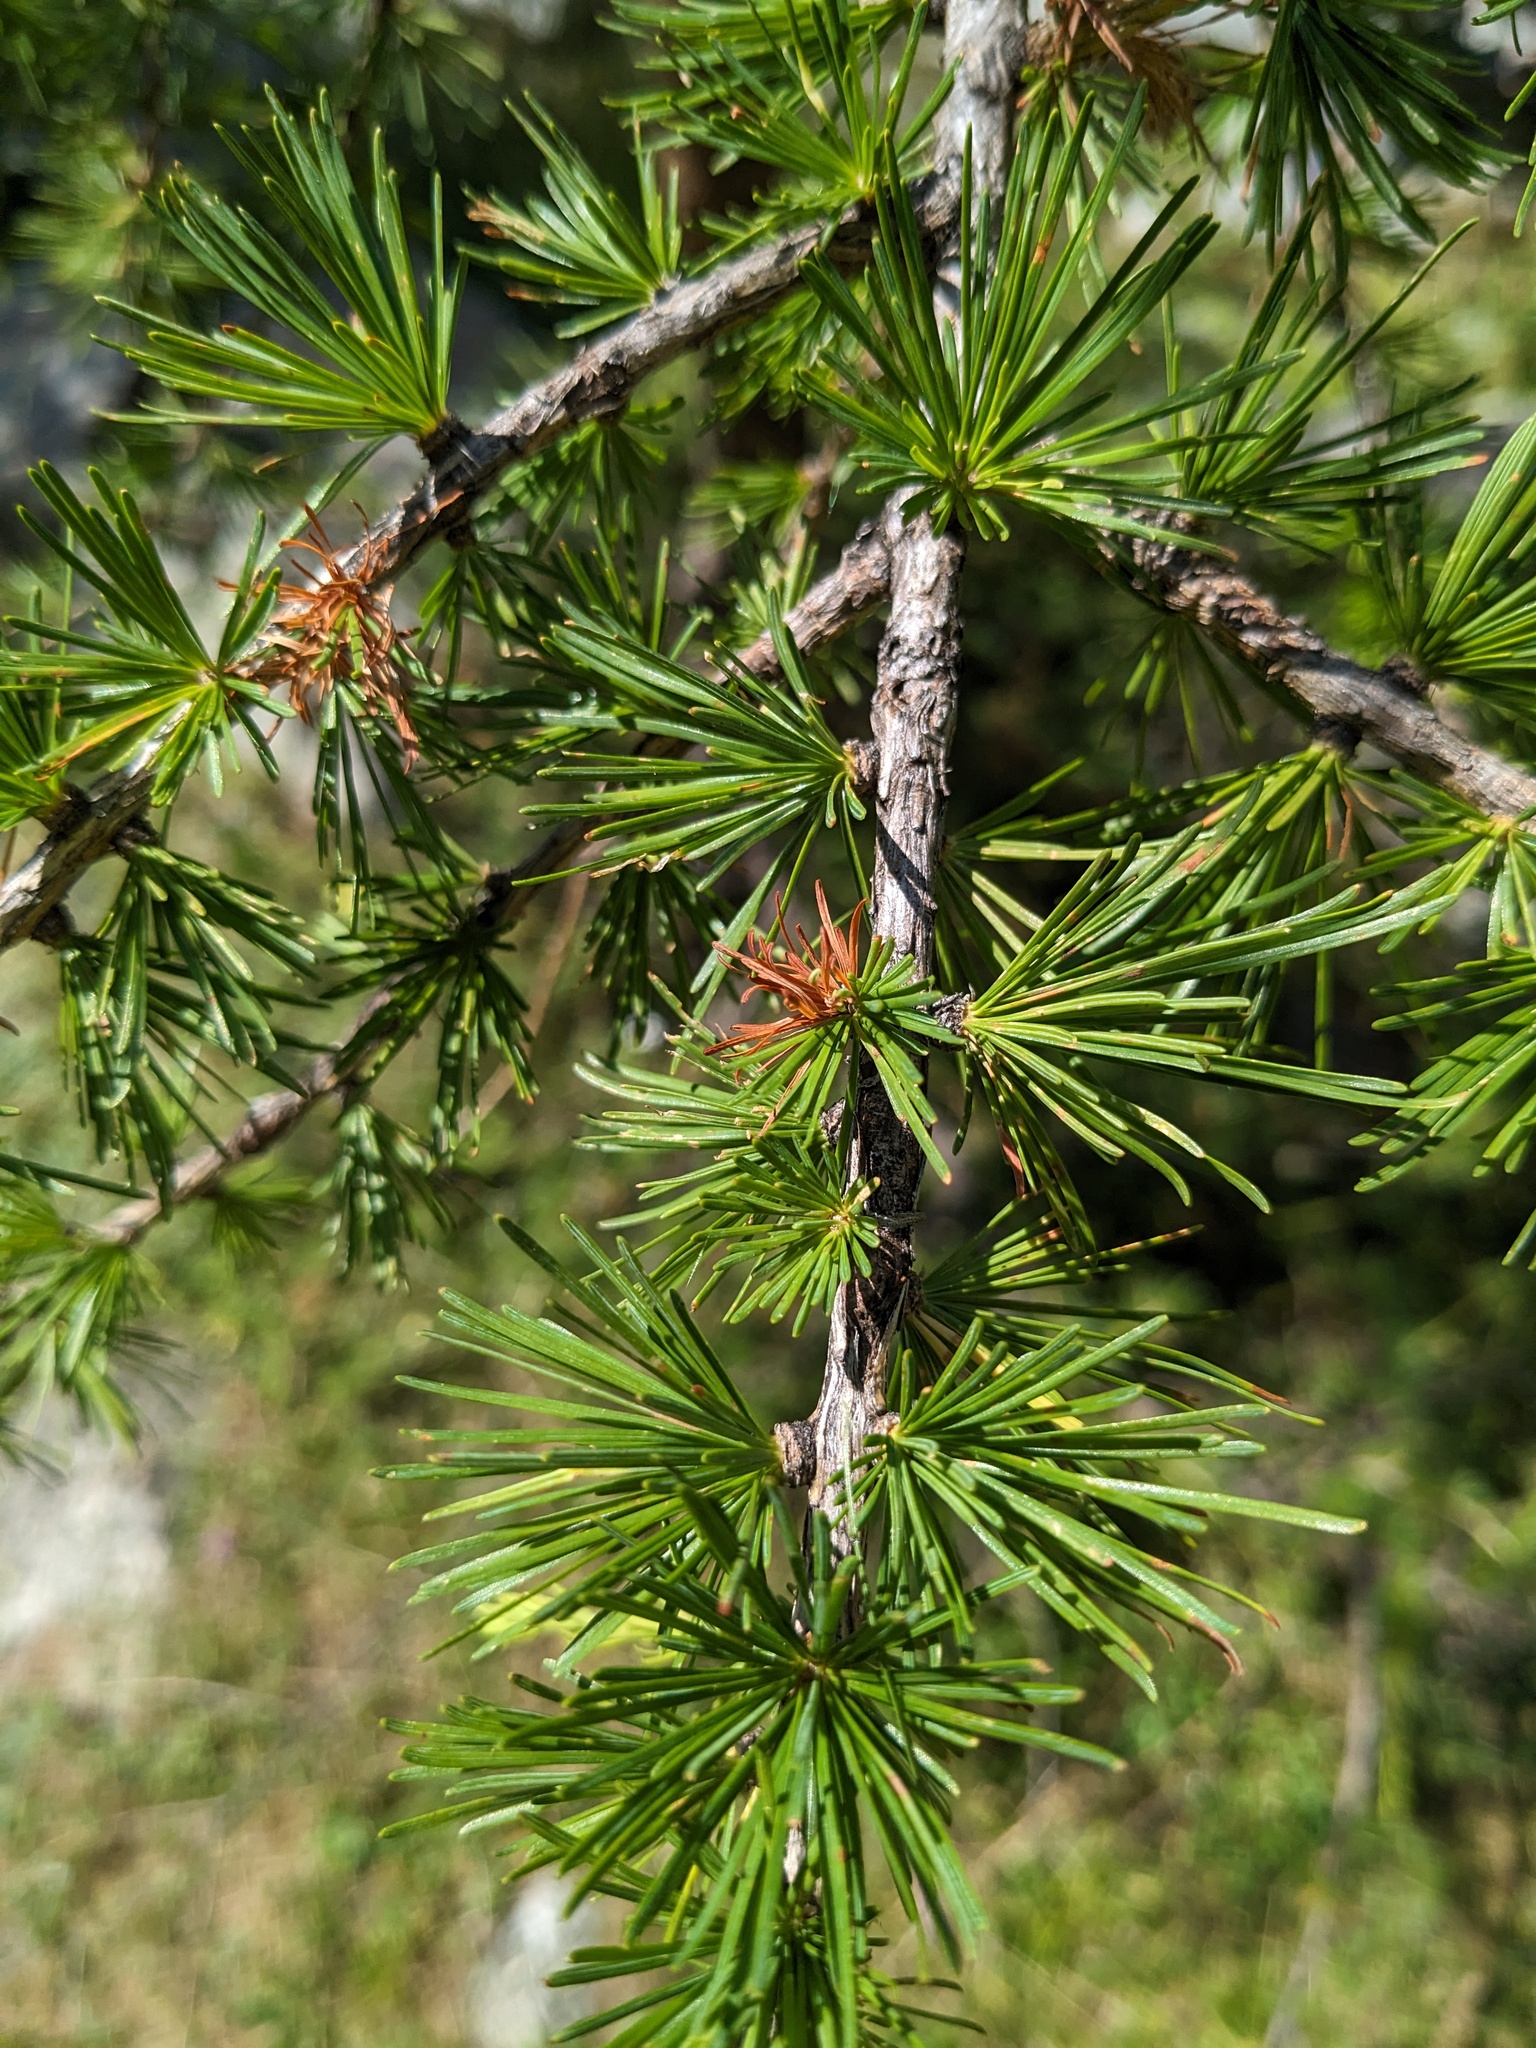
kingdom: Plantae
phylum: Tracheophyta
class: Pinopsida
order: Pinales
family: Pinaceae
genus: Larix
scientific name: Larix decidua
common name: European larch
